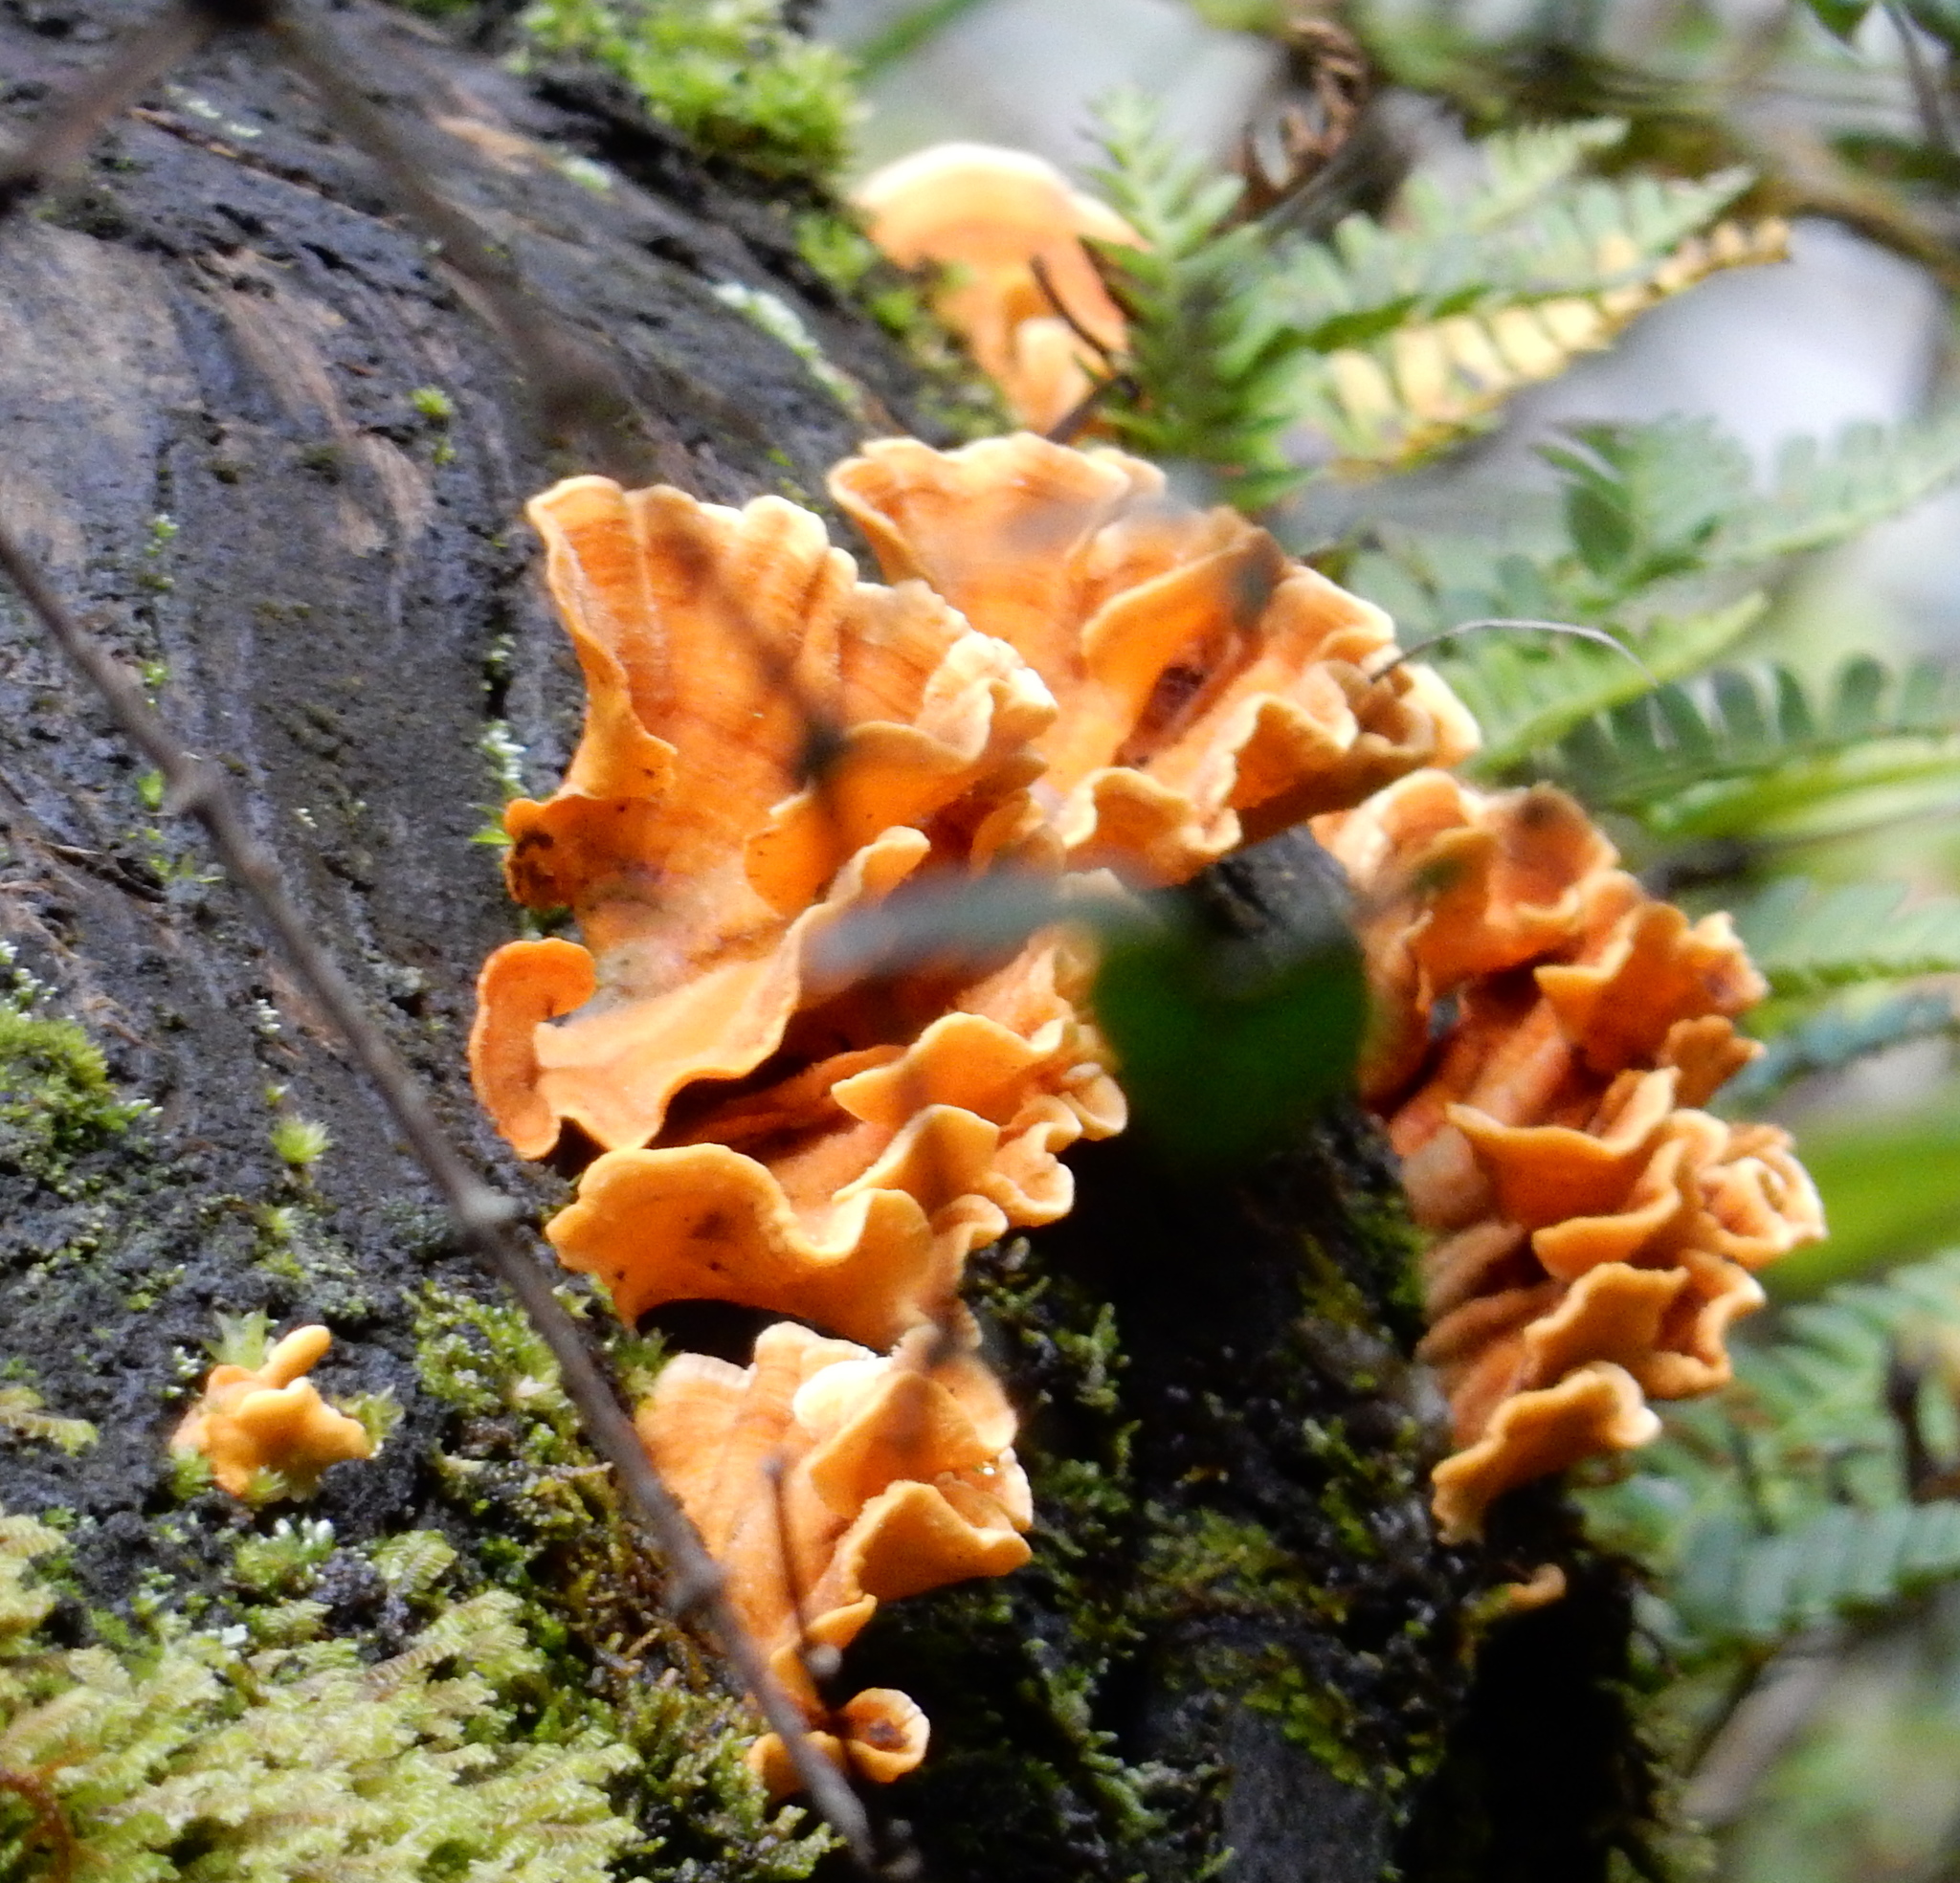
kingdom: Fungi
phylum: Basidiomycota
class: Agaricomycetes
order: Russulales
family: Stereaceae
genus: Stereum
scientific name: Stereum hirsutum
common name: Hairy curtain crust
